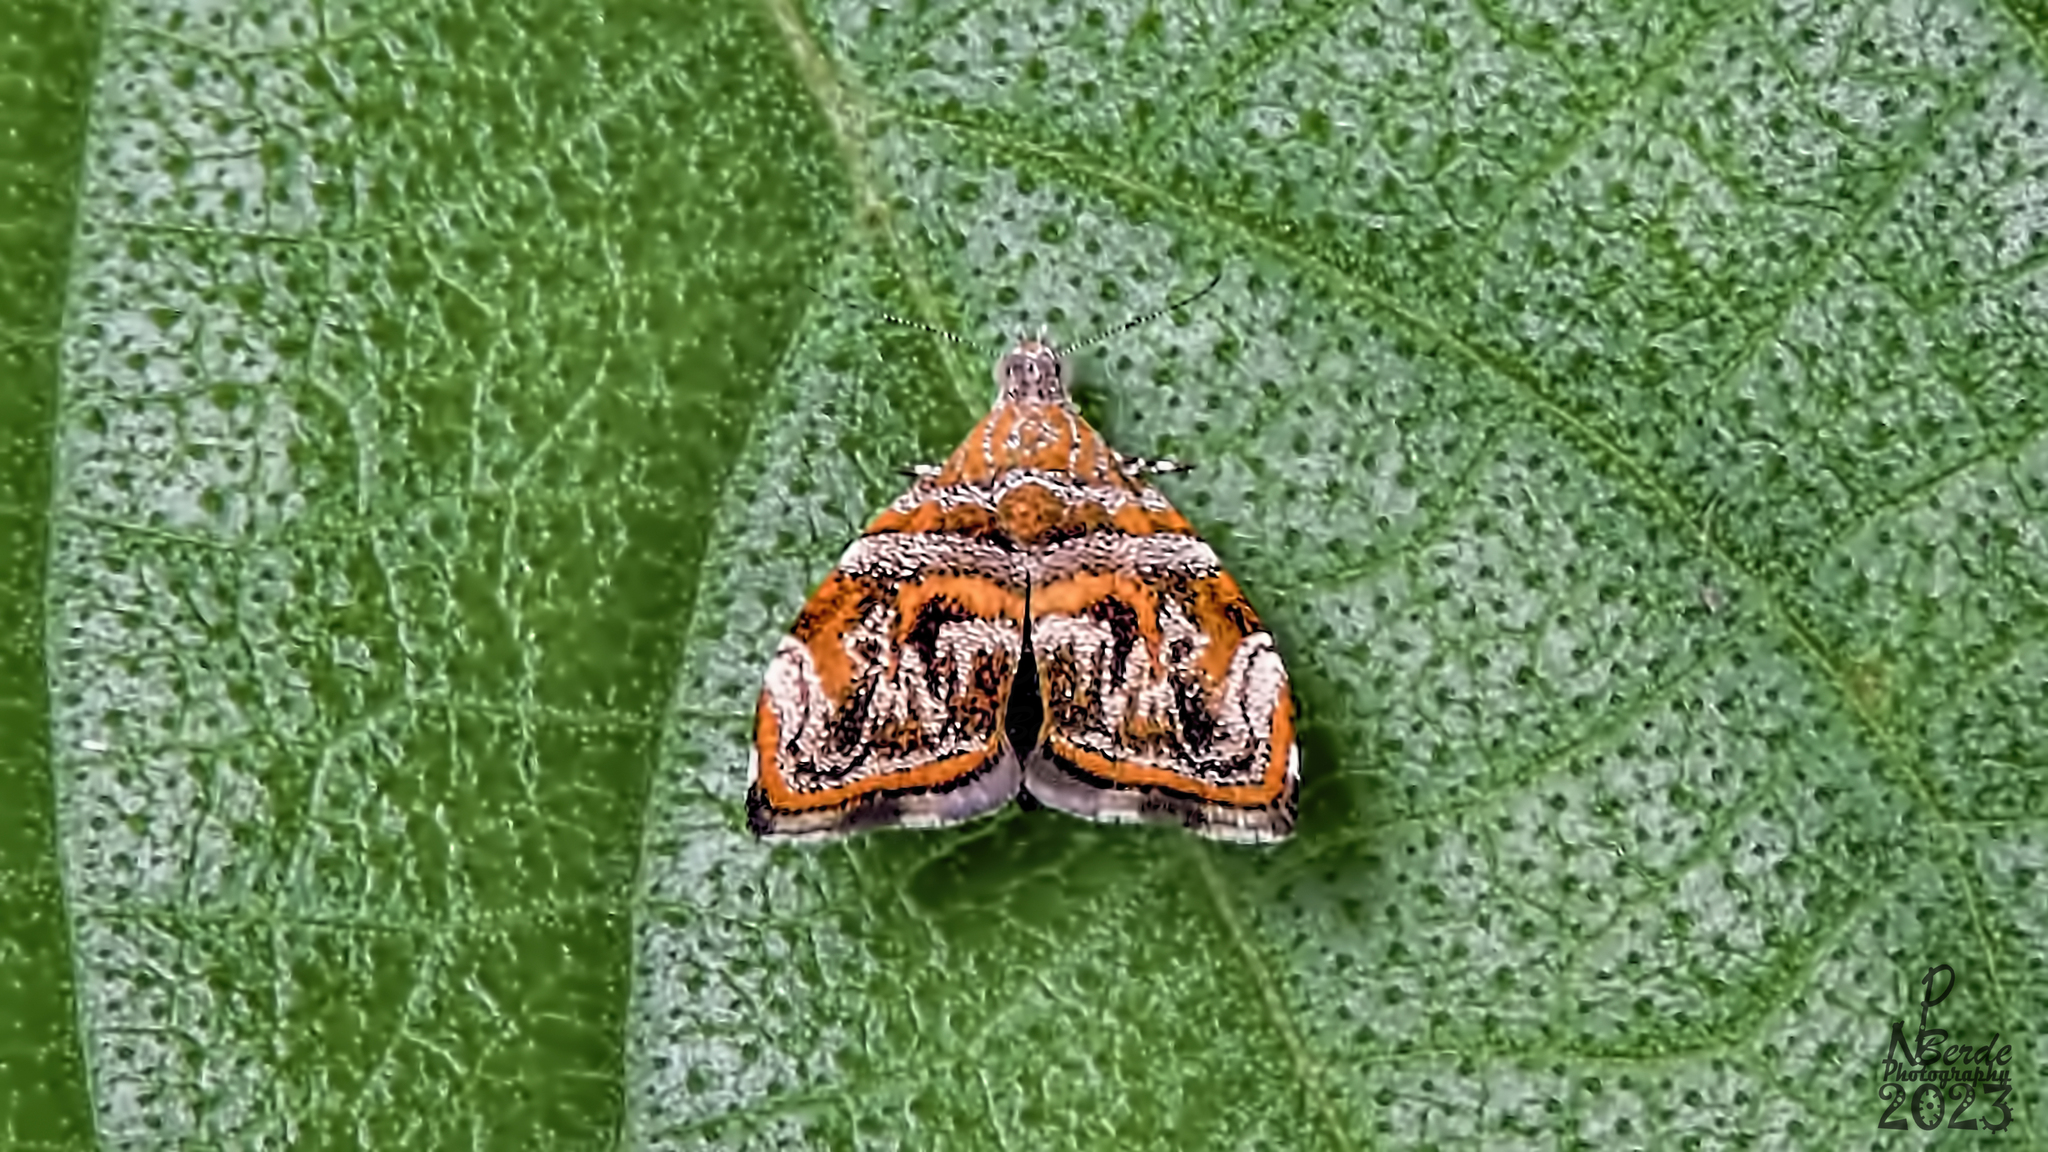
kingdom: Animalia
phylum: Arthropoda
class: Insecta
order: Lepidoptera
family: Choreutidae
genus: Choreutis
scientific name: Choreutis orthogona
